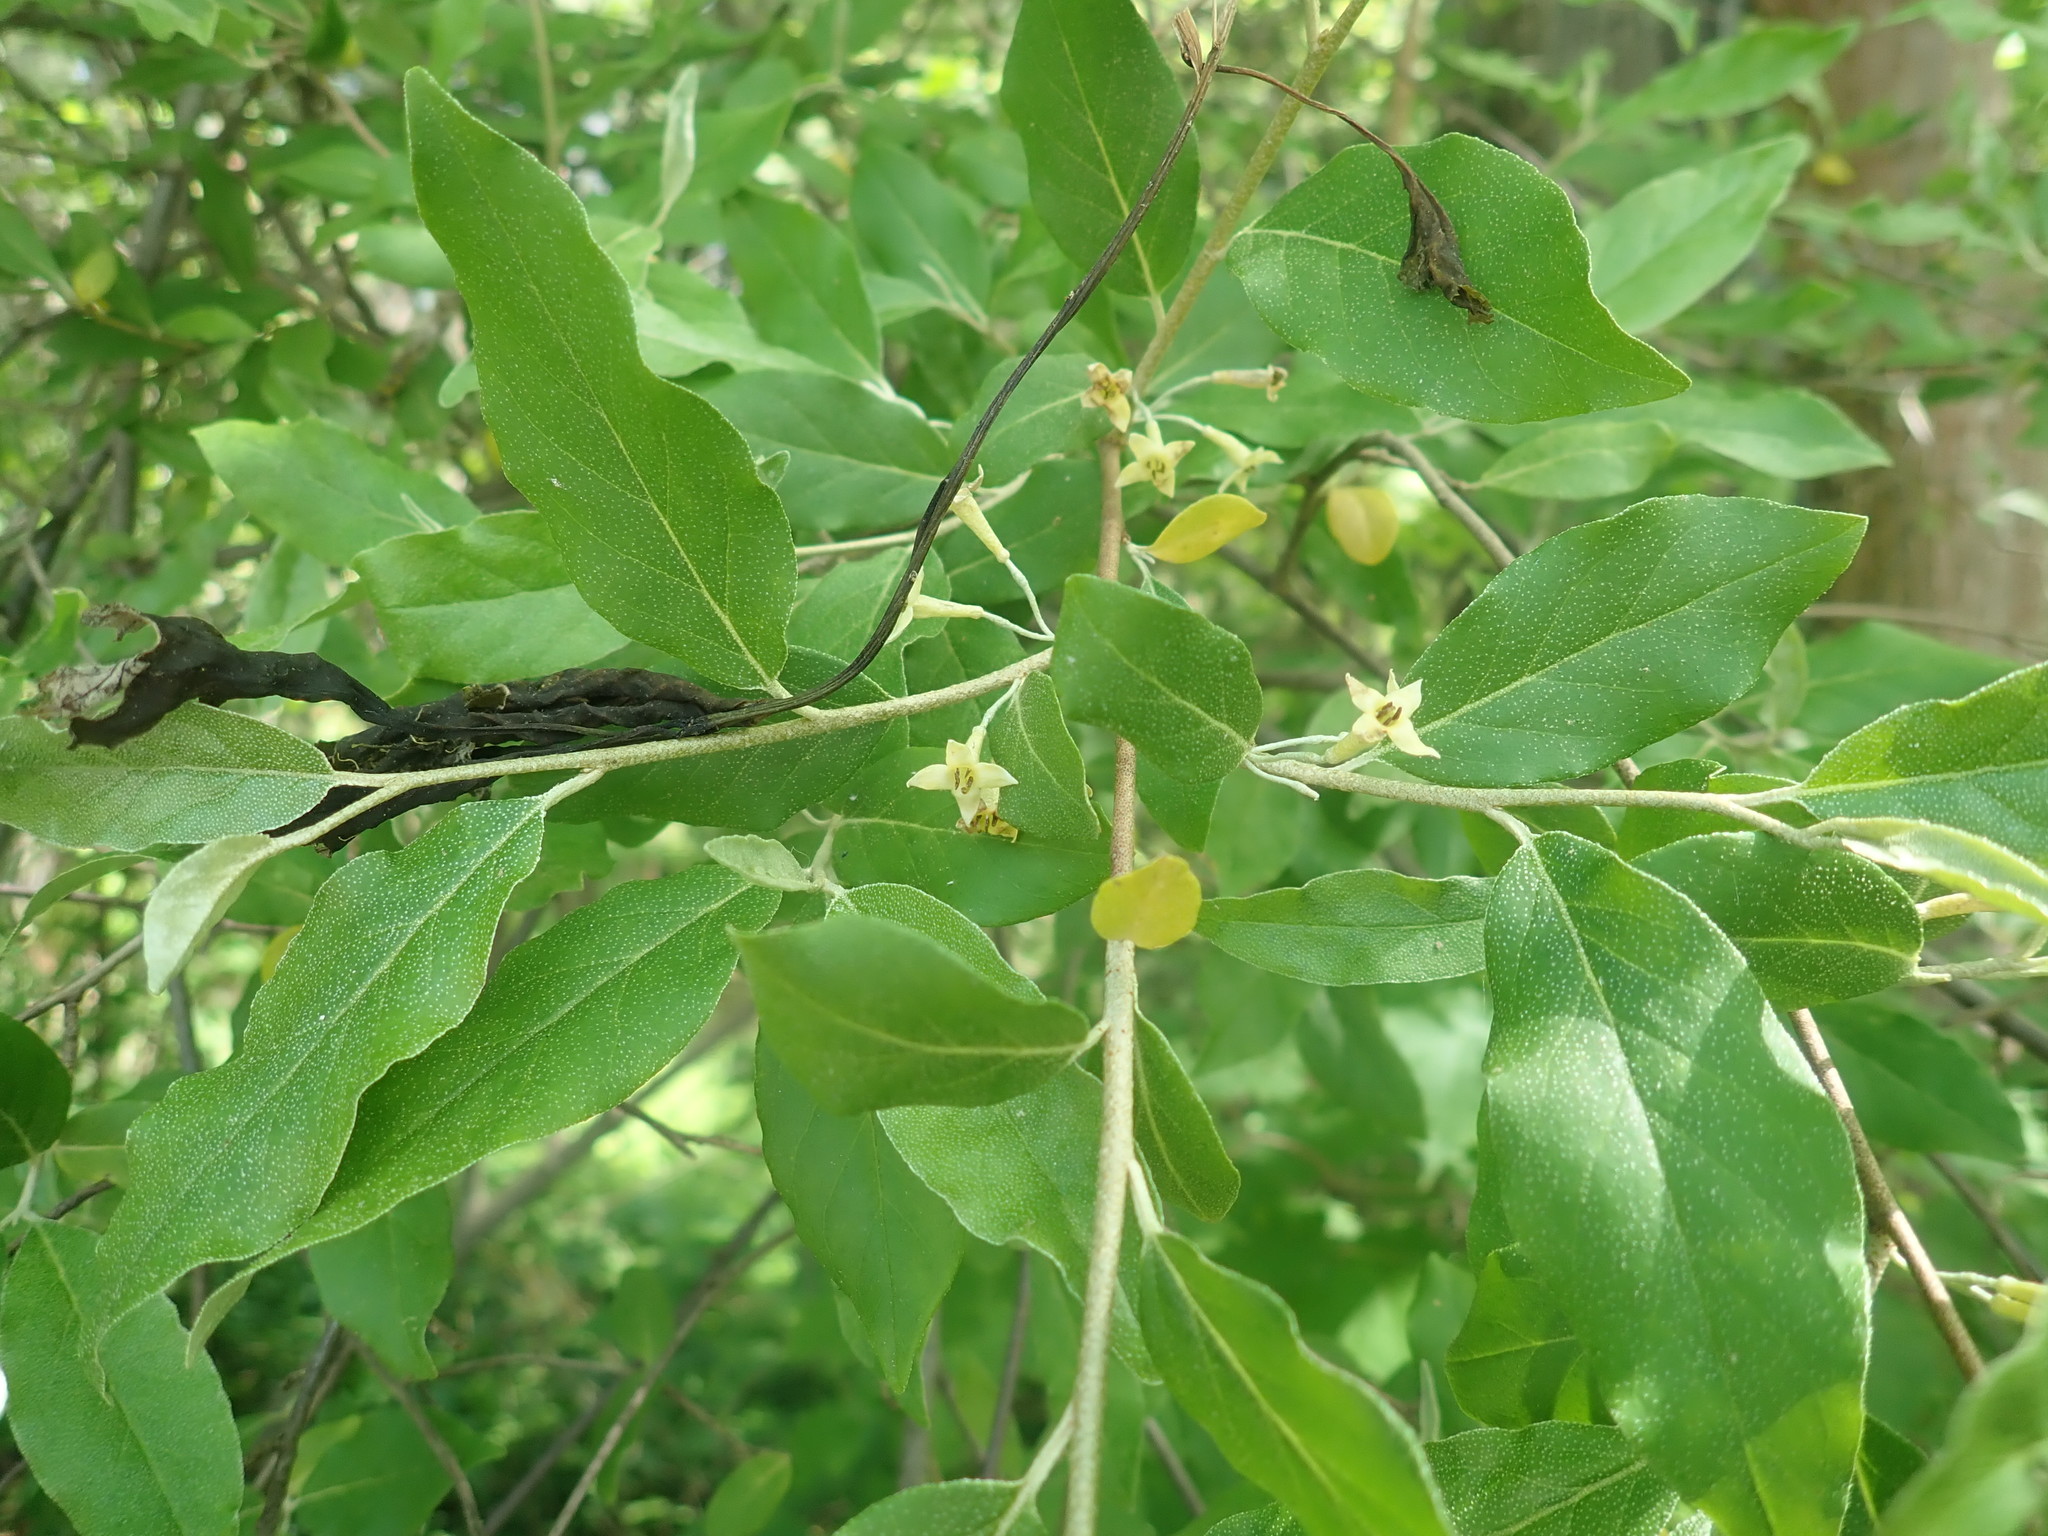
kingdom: Plantae
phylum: Tracheophyta
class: Magnoliopsida
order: Rosales
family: Elaeagnaceae
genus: Elaeagnus
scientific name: Elaeagnus umbellata
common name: Autumn olive
